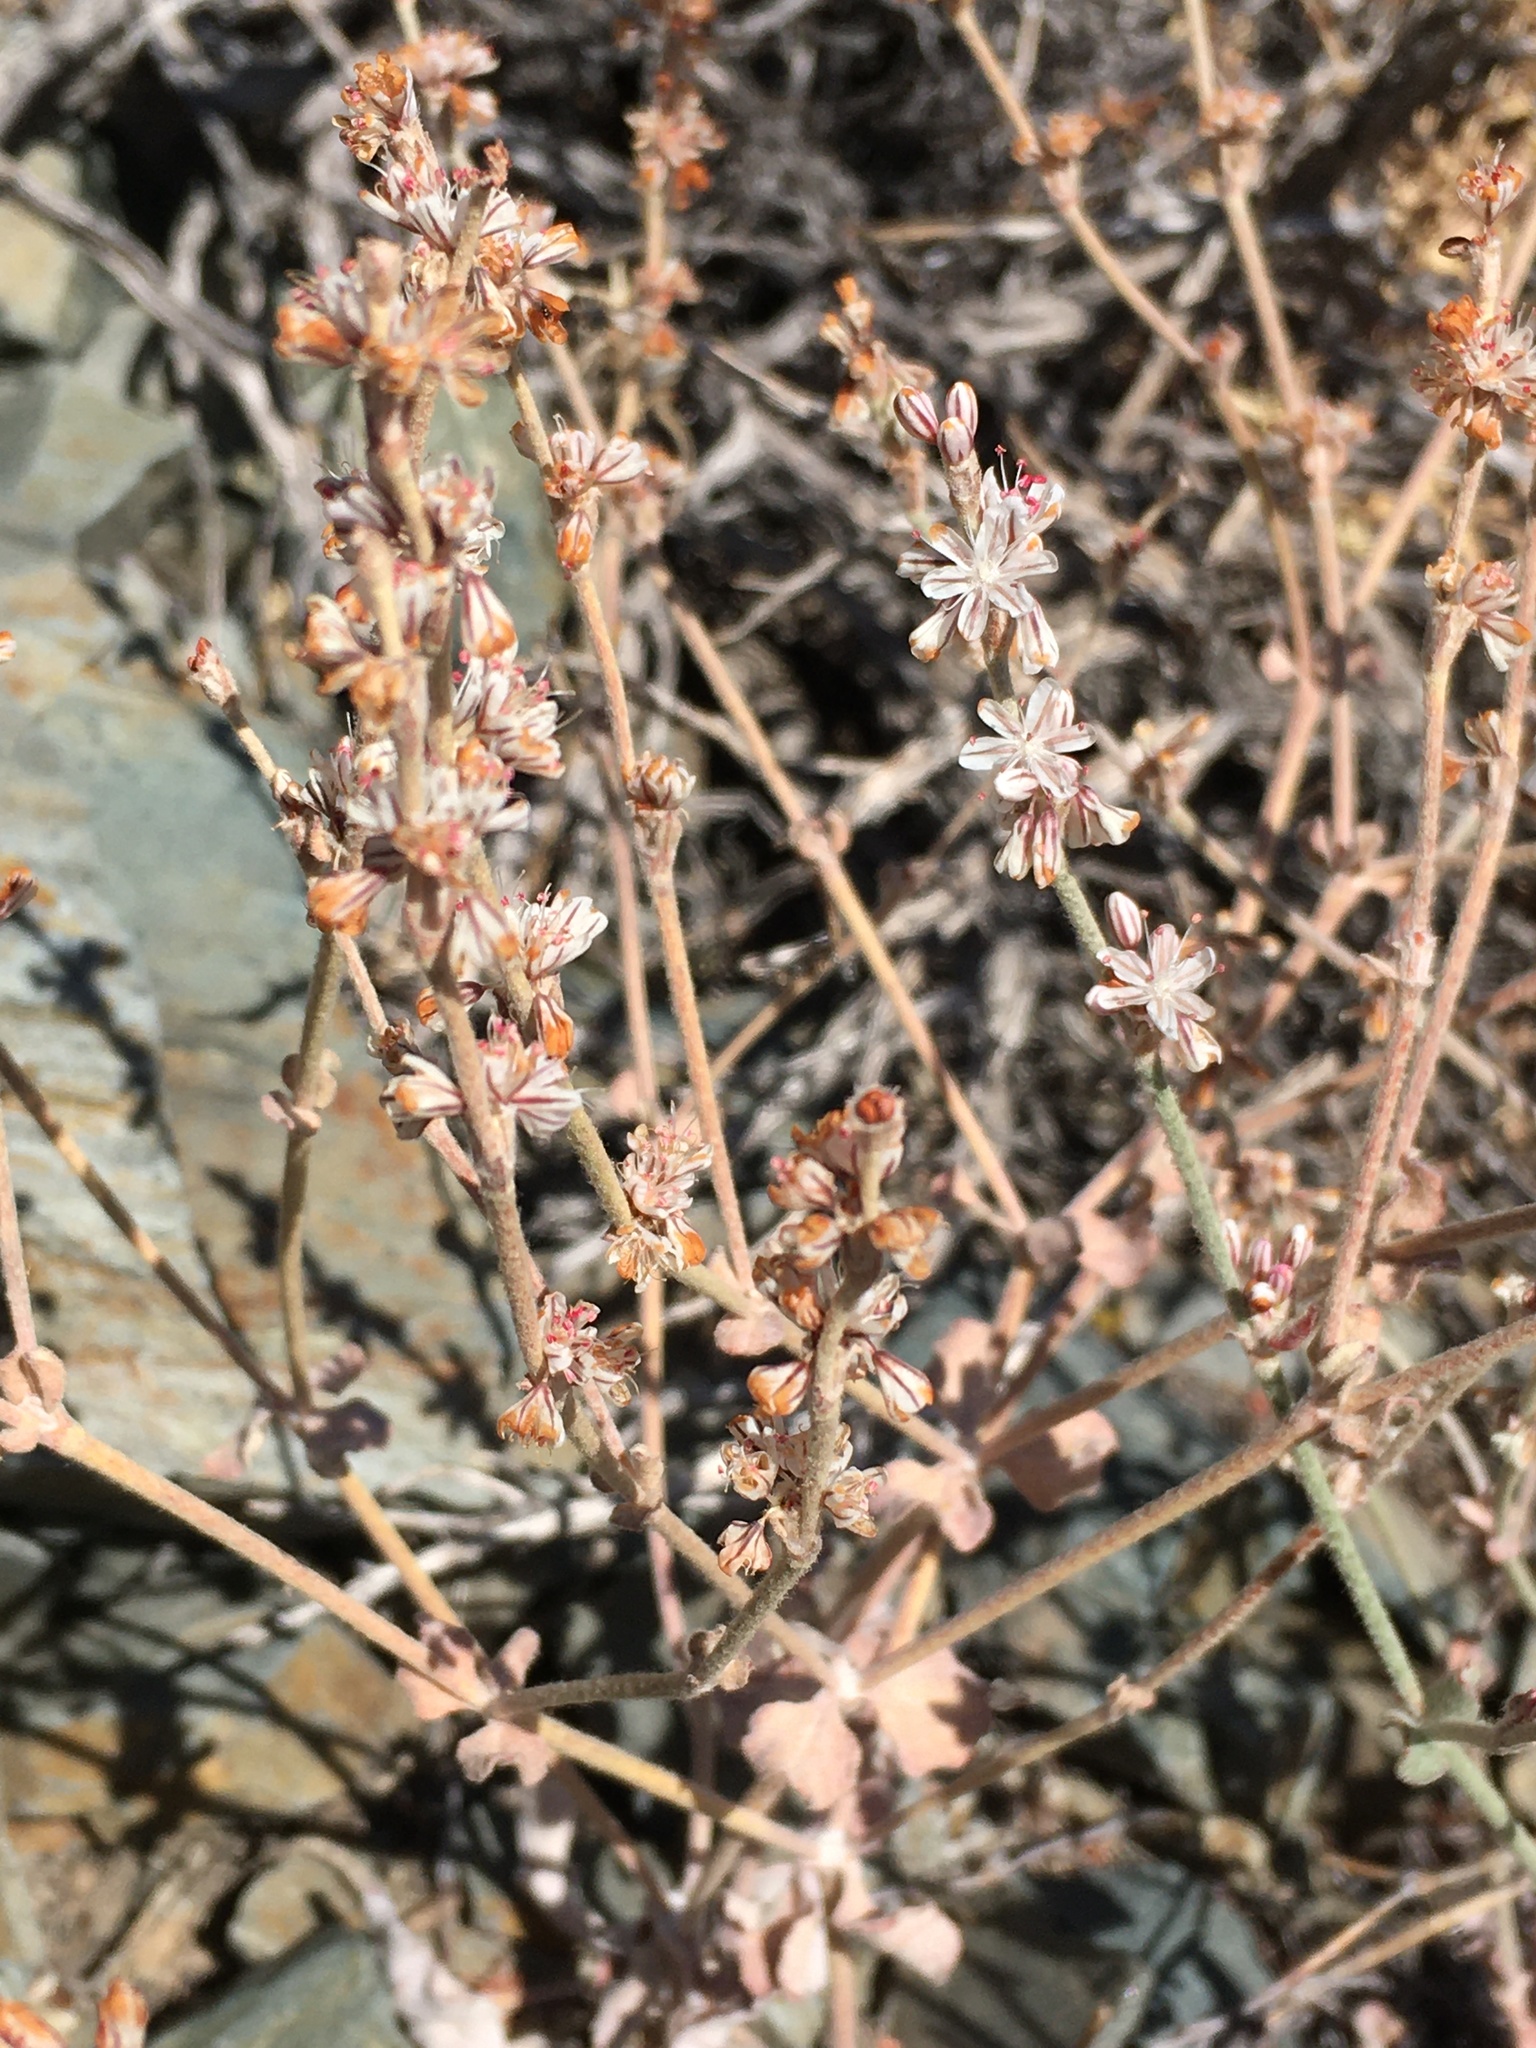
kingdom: Plantae
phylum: Tracheophyta
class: Magnoliopsida
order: Caryophyllales
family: Polygonaceae
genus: Eriogonum
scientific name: Eriogonum panamintense
